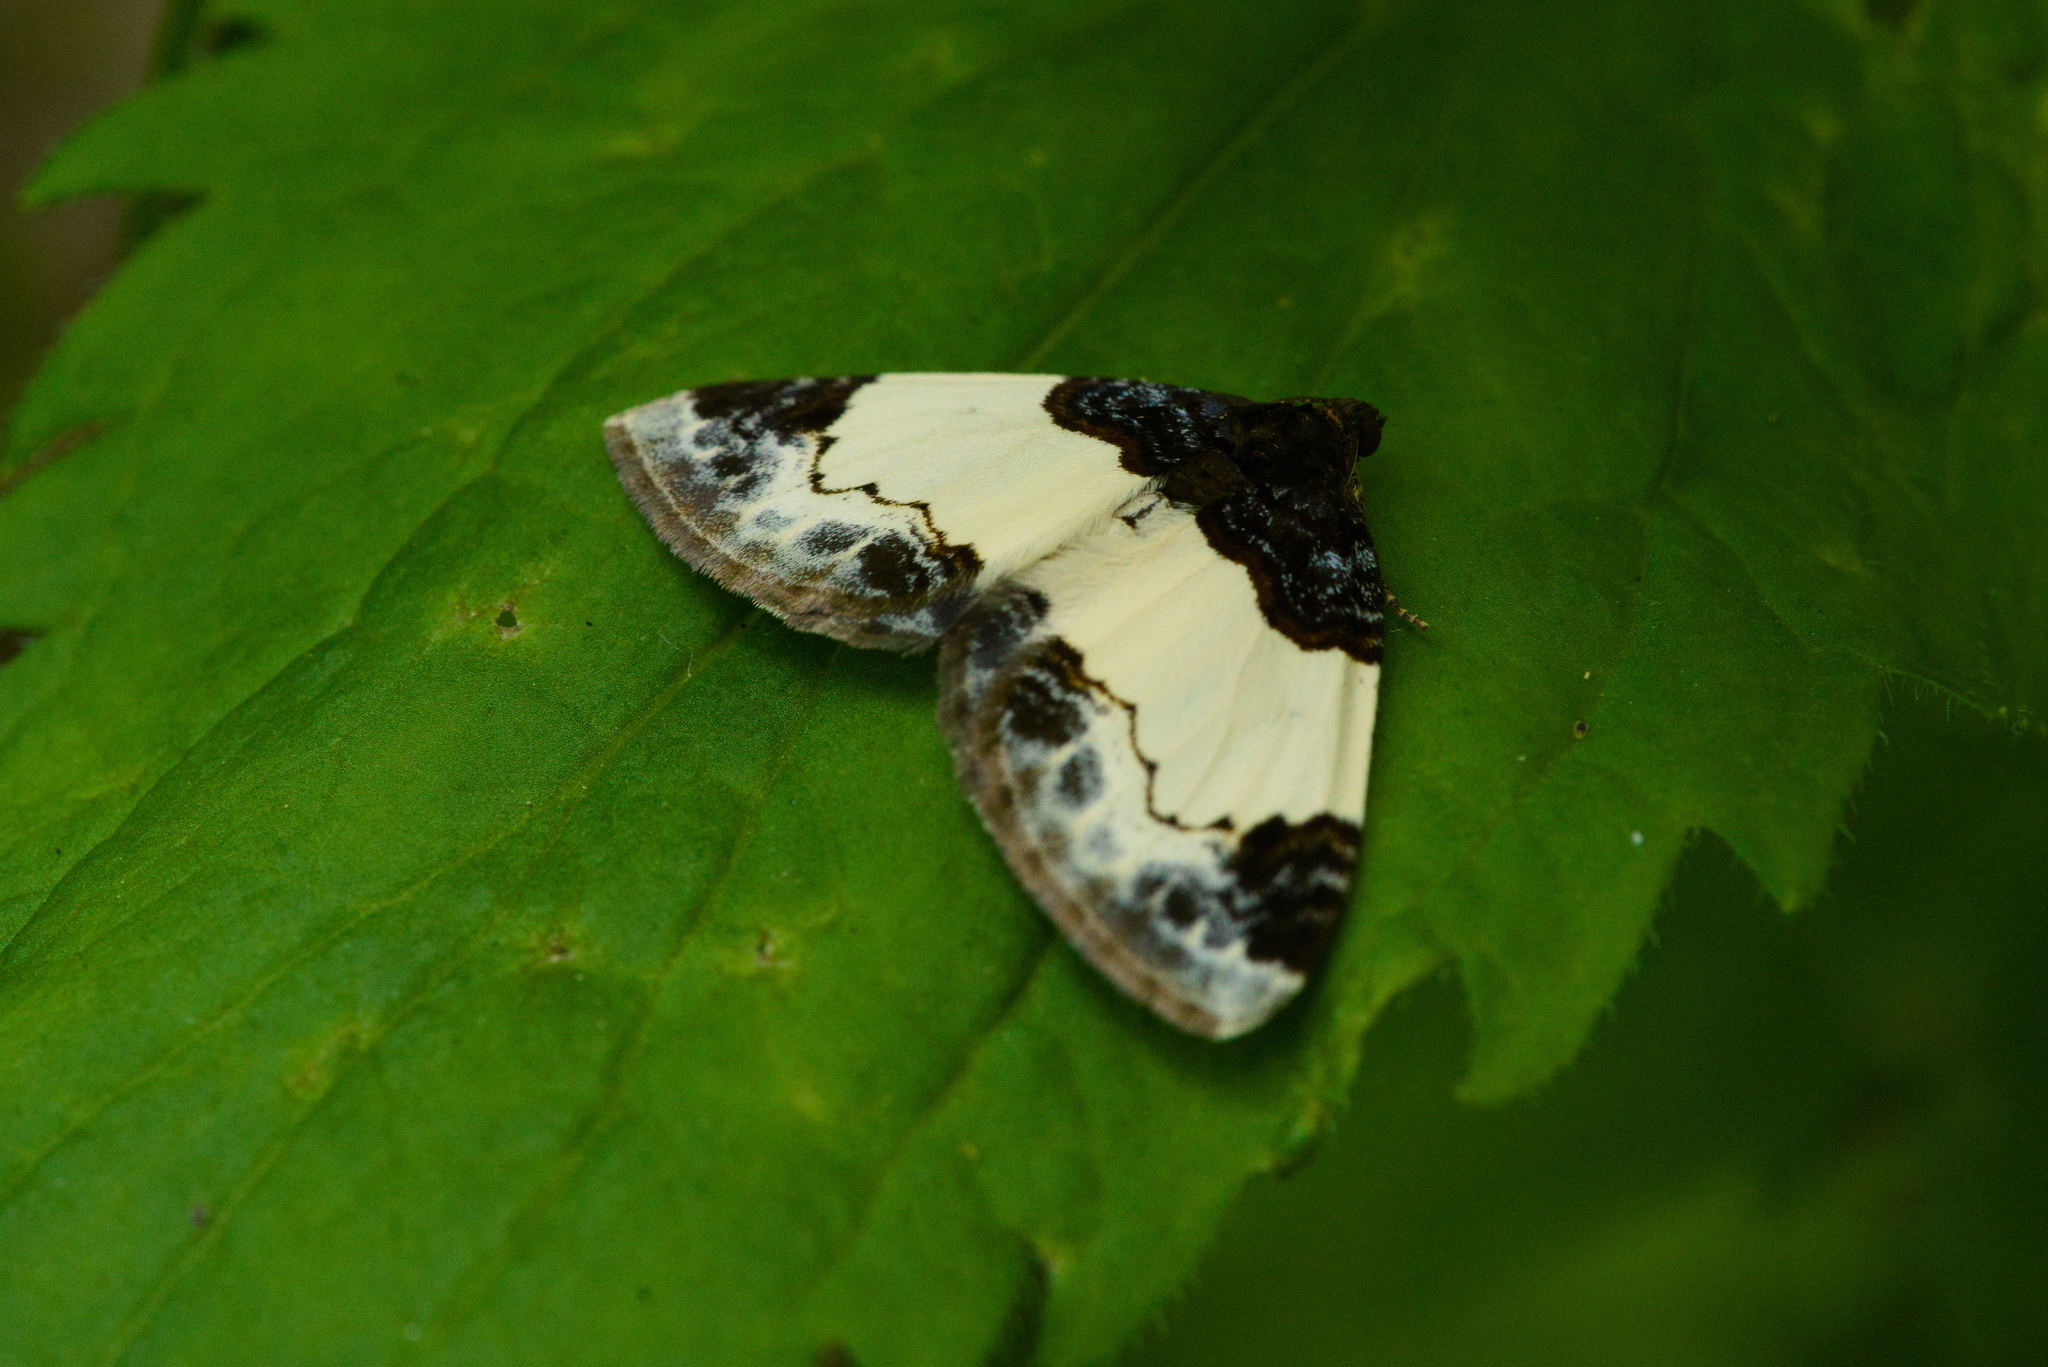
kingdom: Animalia
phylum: Arthropoda
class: Insecta
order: Lepidoptera
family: Geometridae
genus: Mesoleuca
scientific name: Mesoleuca albicillata
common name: Beautiful carpet
